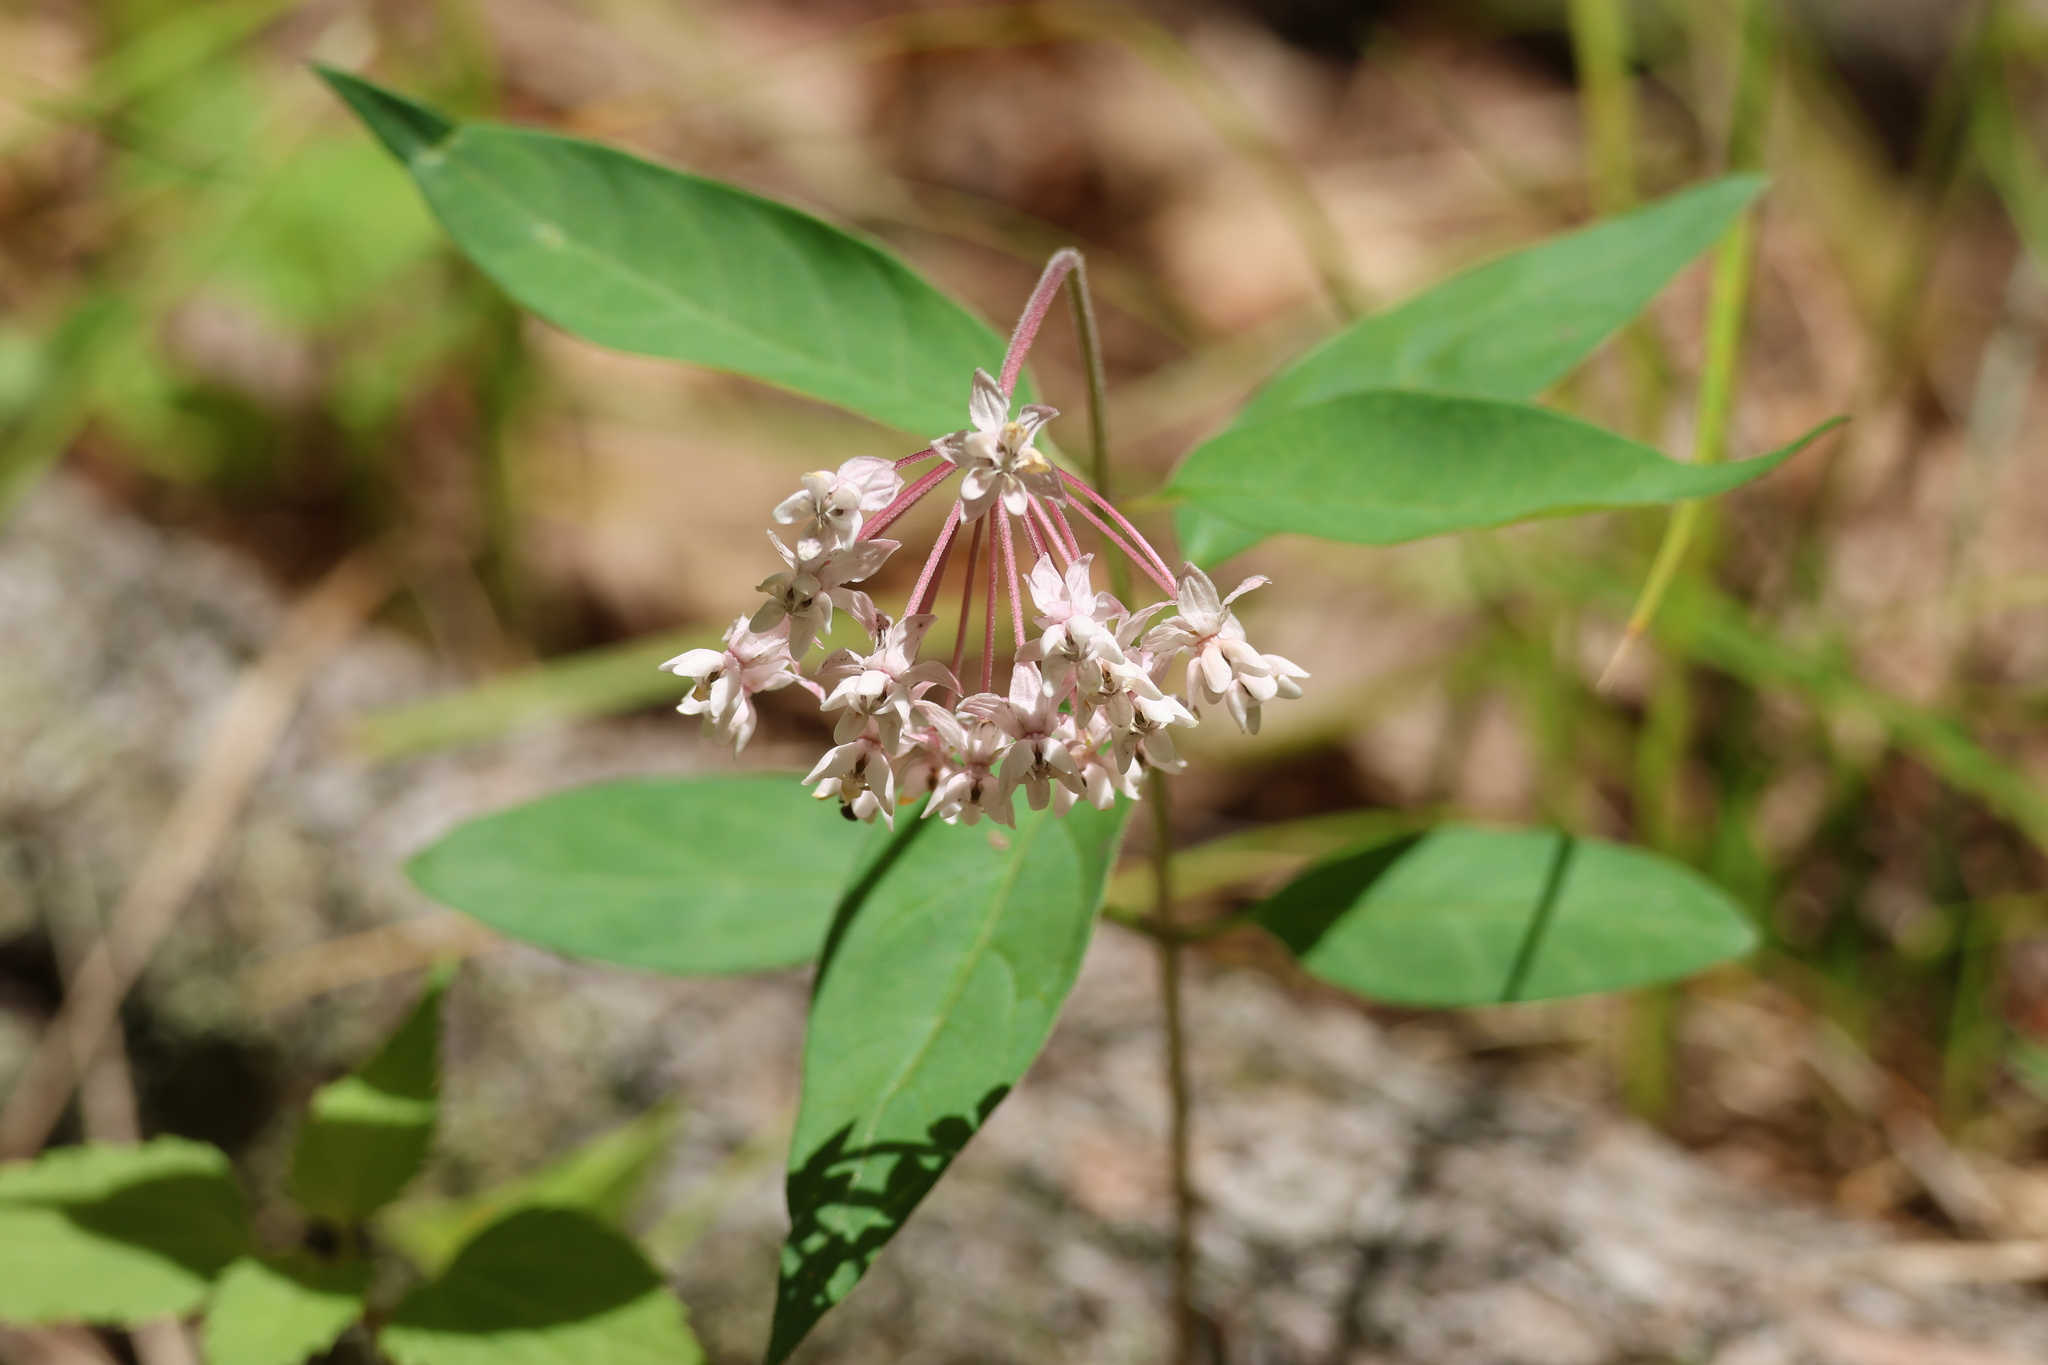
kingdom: Plantae
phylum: Tracheophyta
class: Magnoliopsida
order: Gentianales
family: Apocynaceae
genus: Asclepias
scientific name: Asclepias quadrifolia
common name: Whorled milkweed
